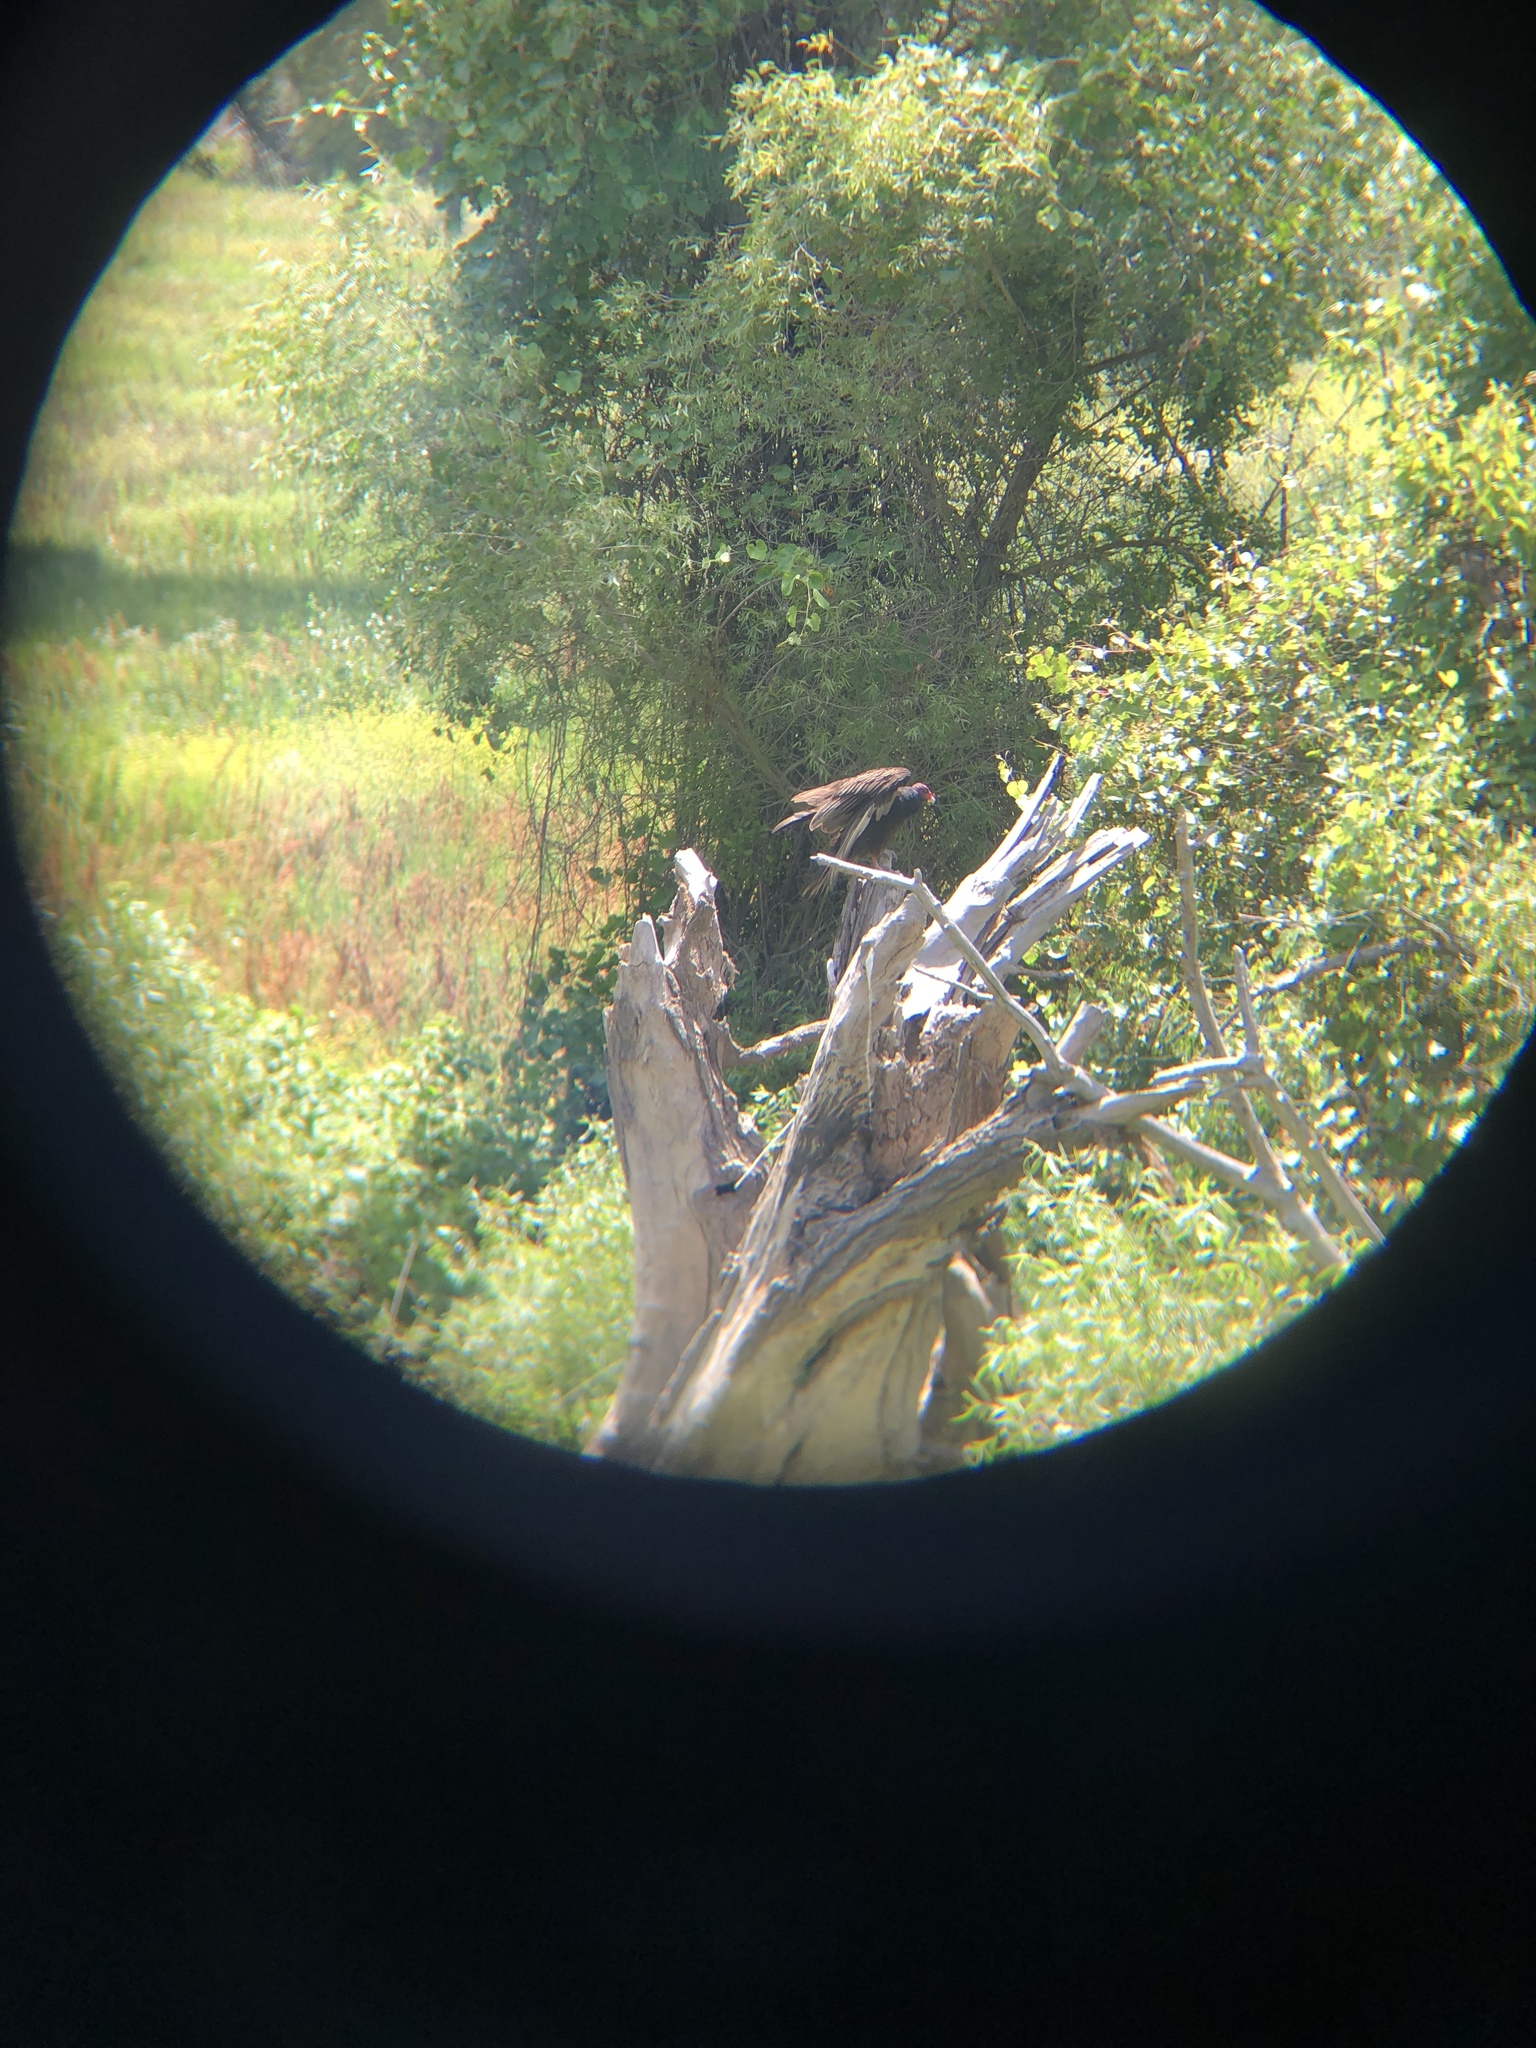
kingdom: Animalia
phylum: Chordata
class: Aves
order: Accipitriformes
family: Cathartidae
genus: Cathartes
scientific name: Cathartes aura
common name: Turkey vulture
